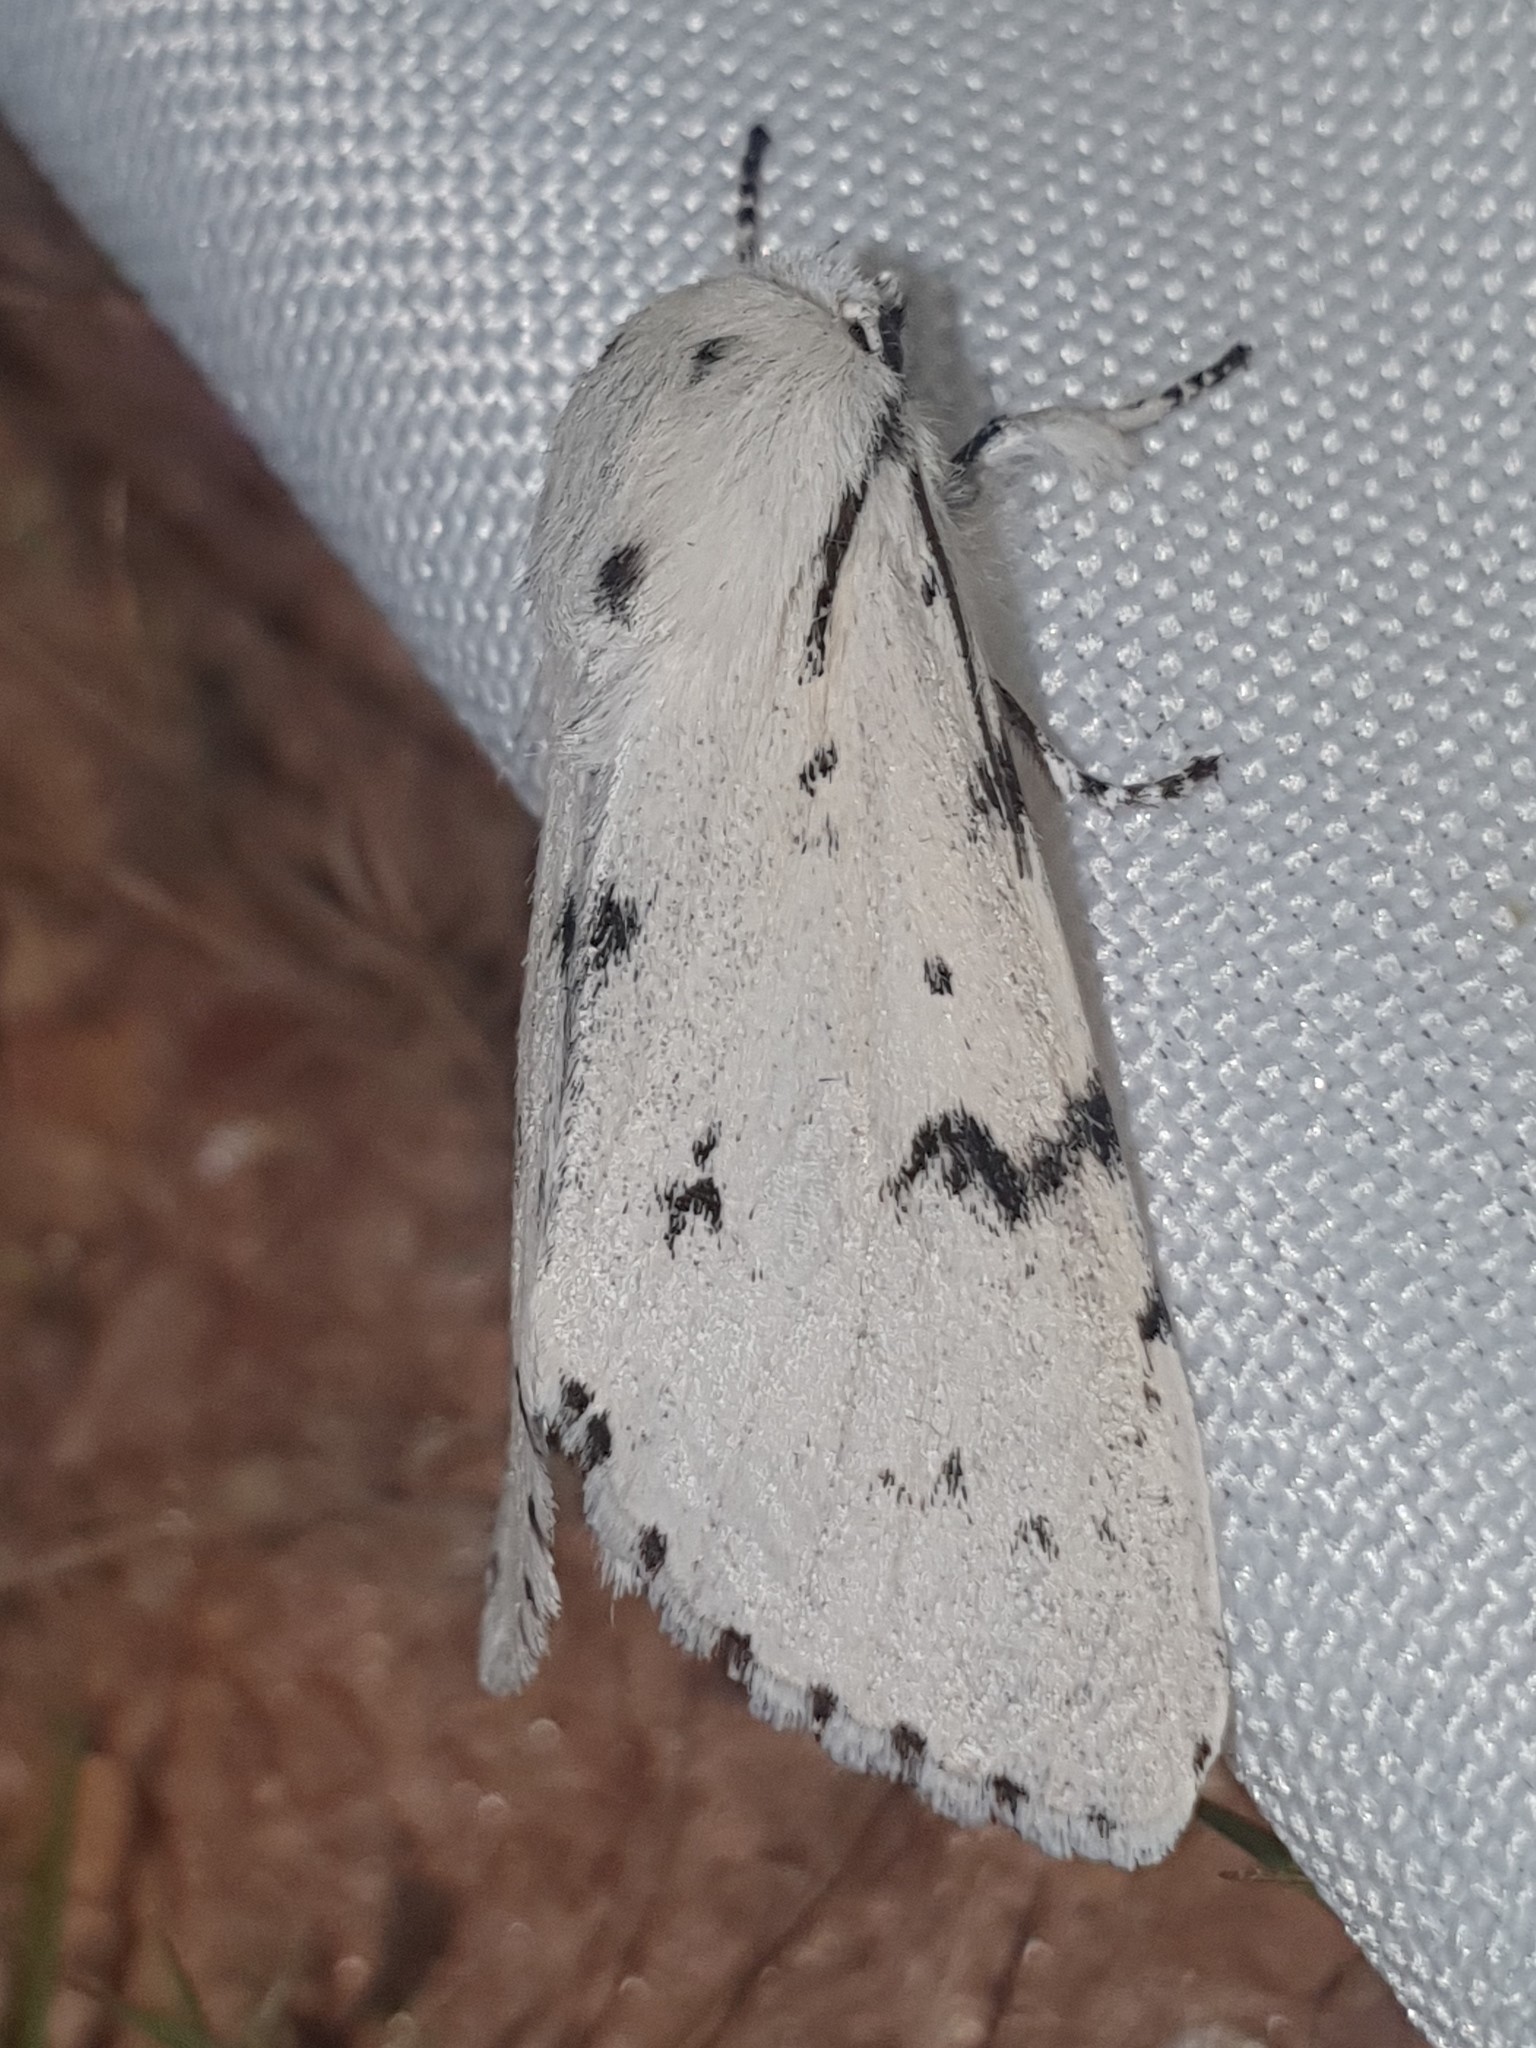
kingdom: Animalia
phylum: Arthropoda
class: Insecta
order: Lepidoptera
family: Noctuidae
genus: Acronicta
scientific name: Acronicta leporina
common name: Miller
